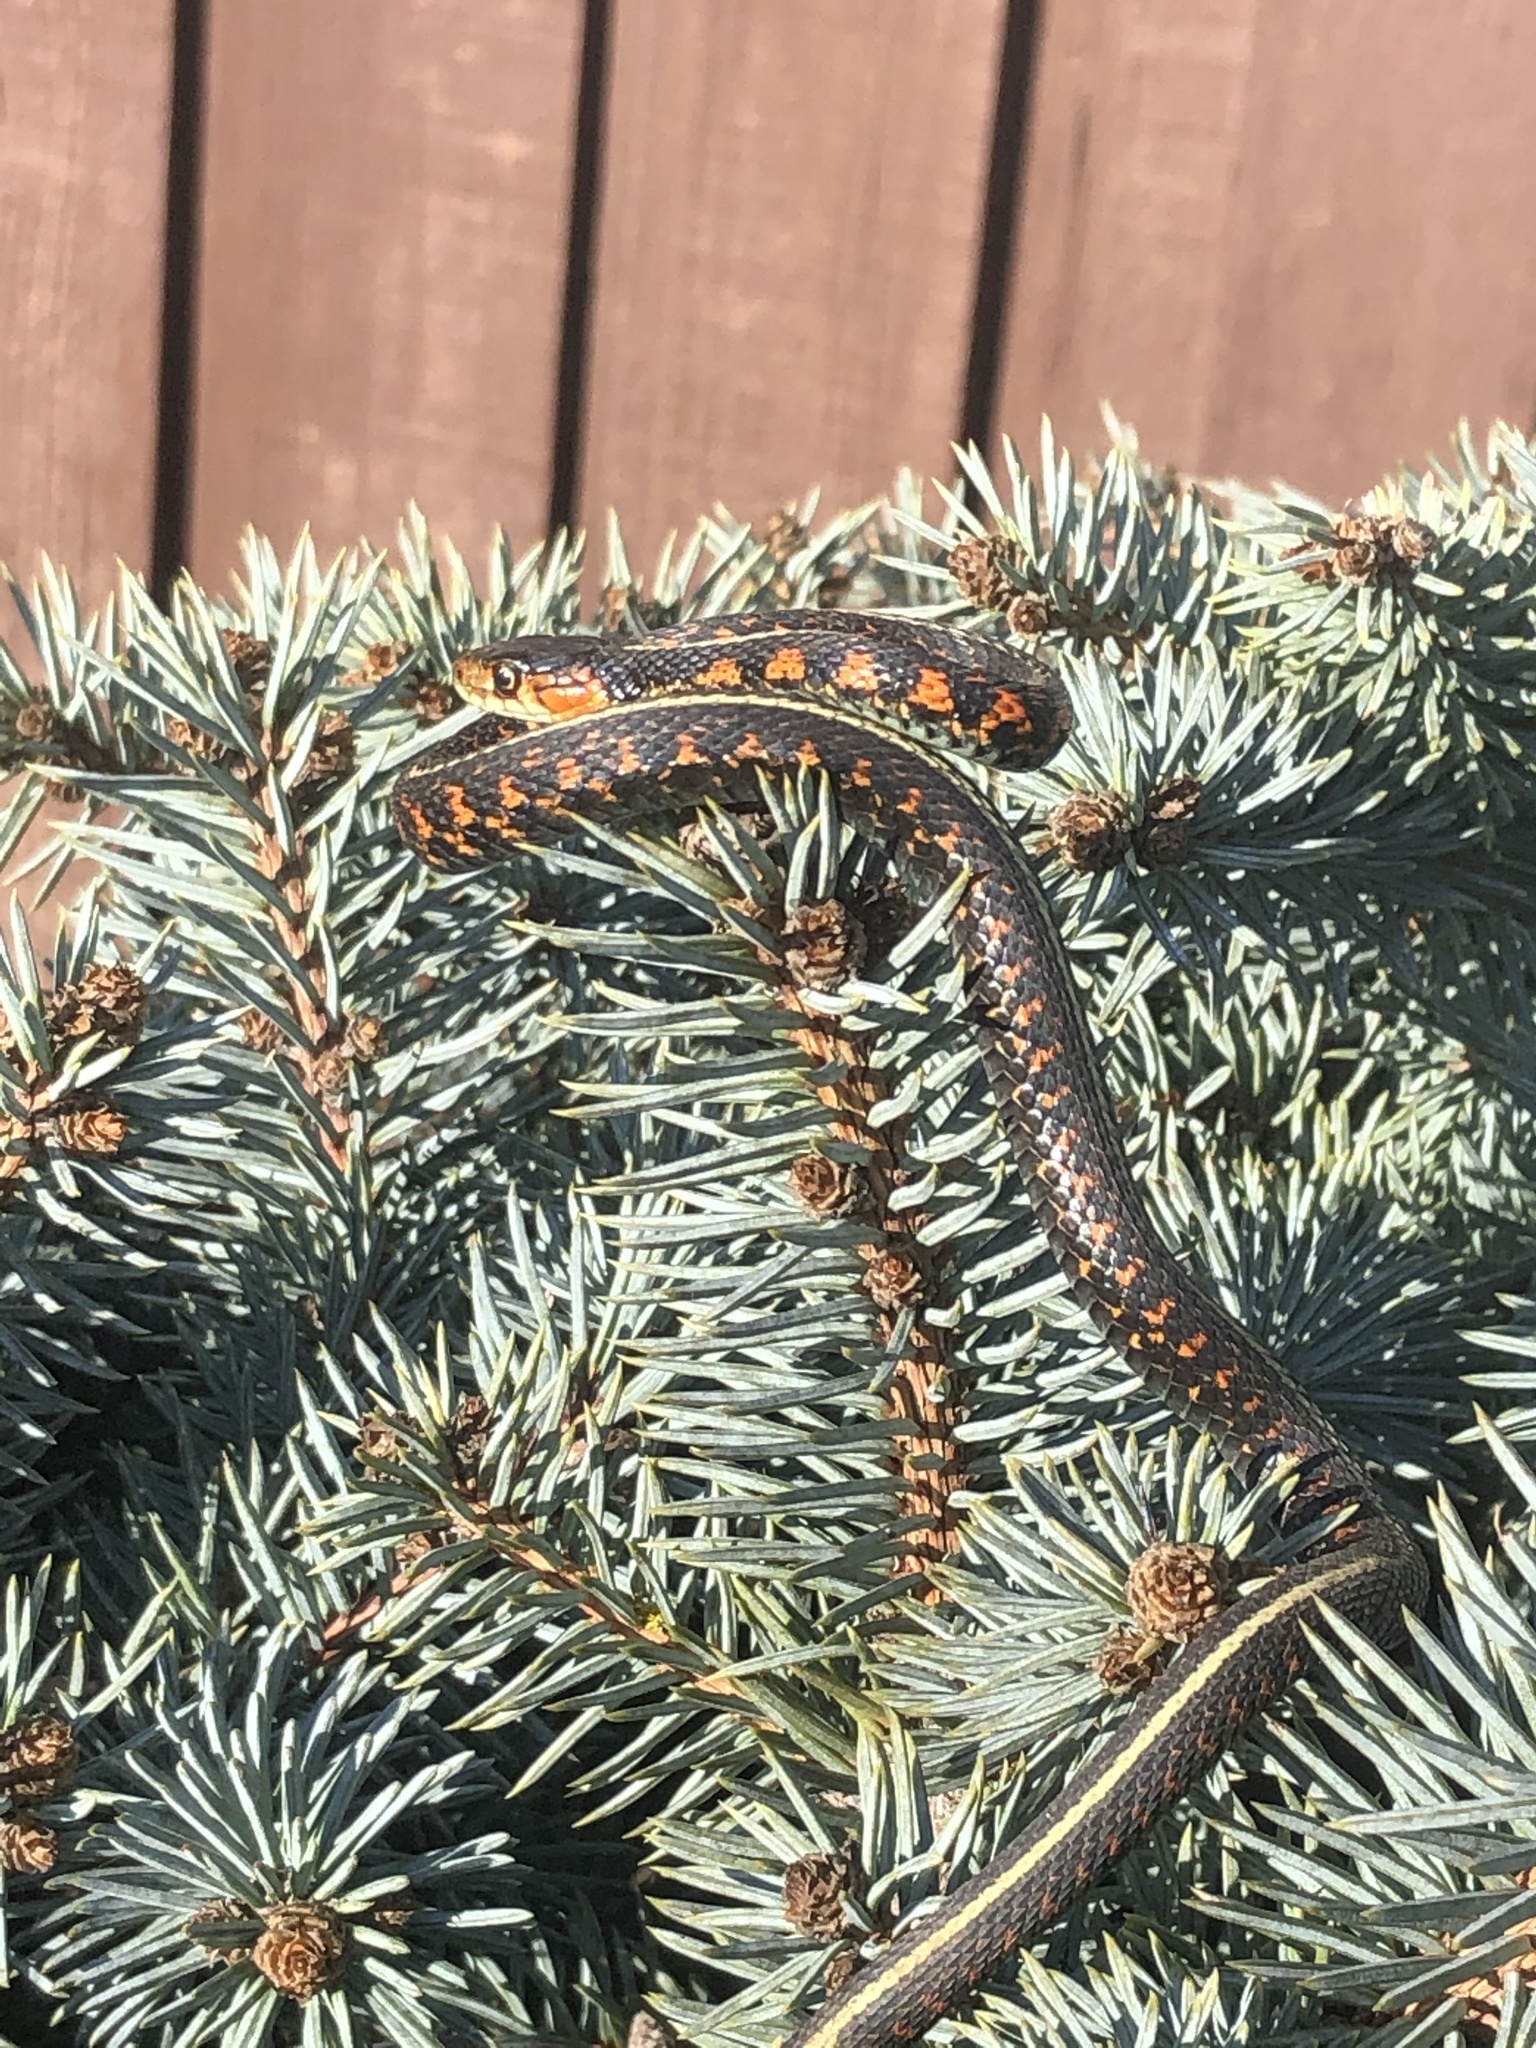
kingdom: Animalia
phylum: Chordata
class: Squamata
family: Colubridae
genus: Thamnophis
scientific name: Thamnophis sirtalis
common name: Common garter snake
